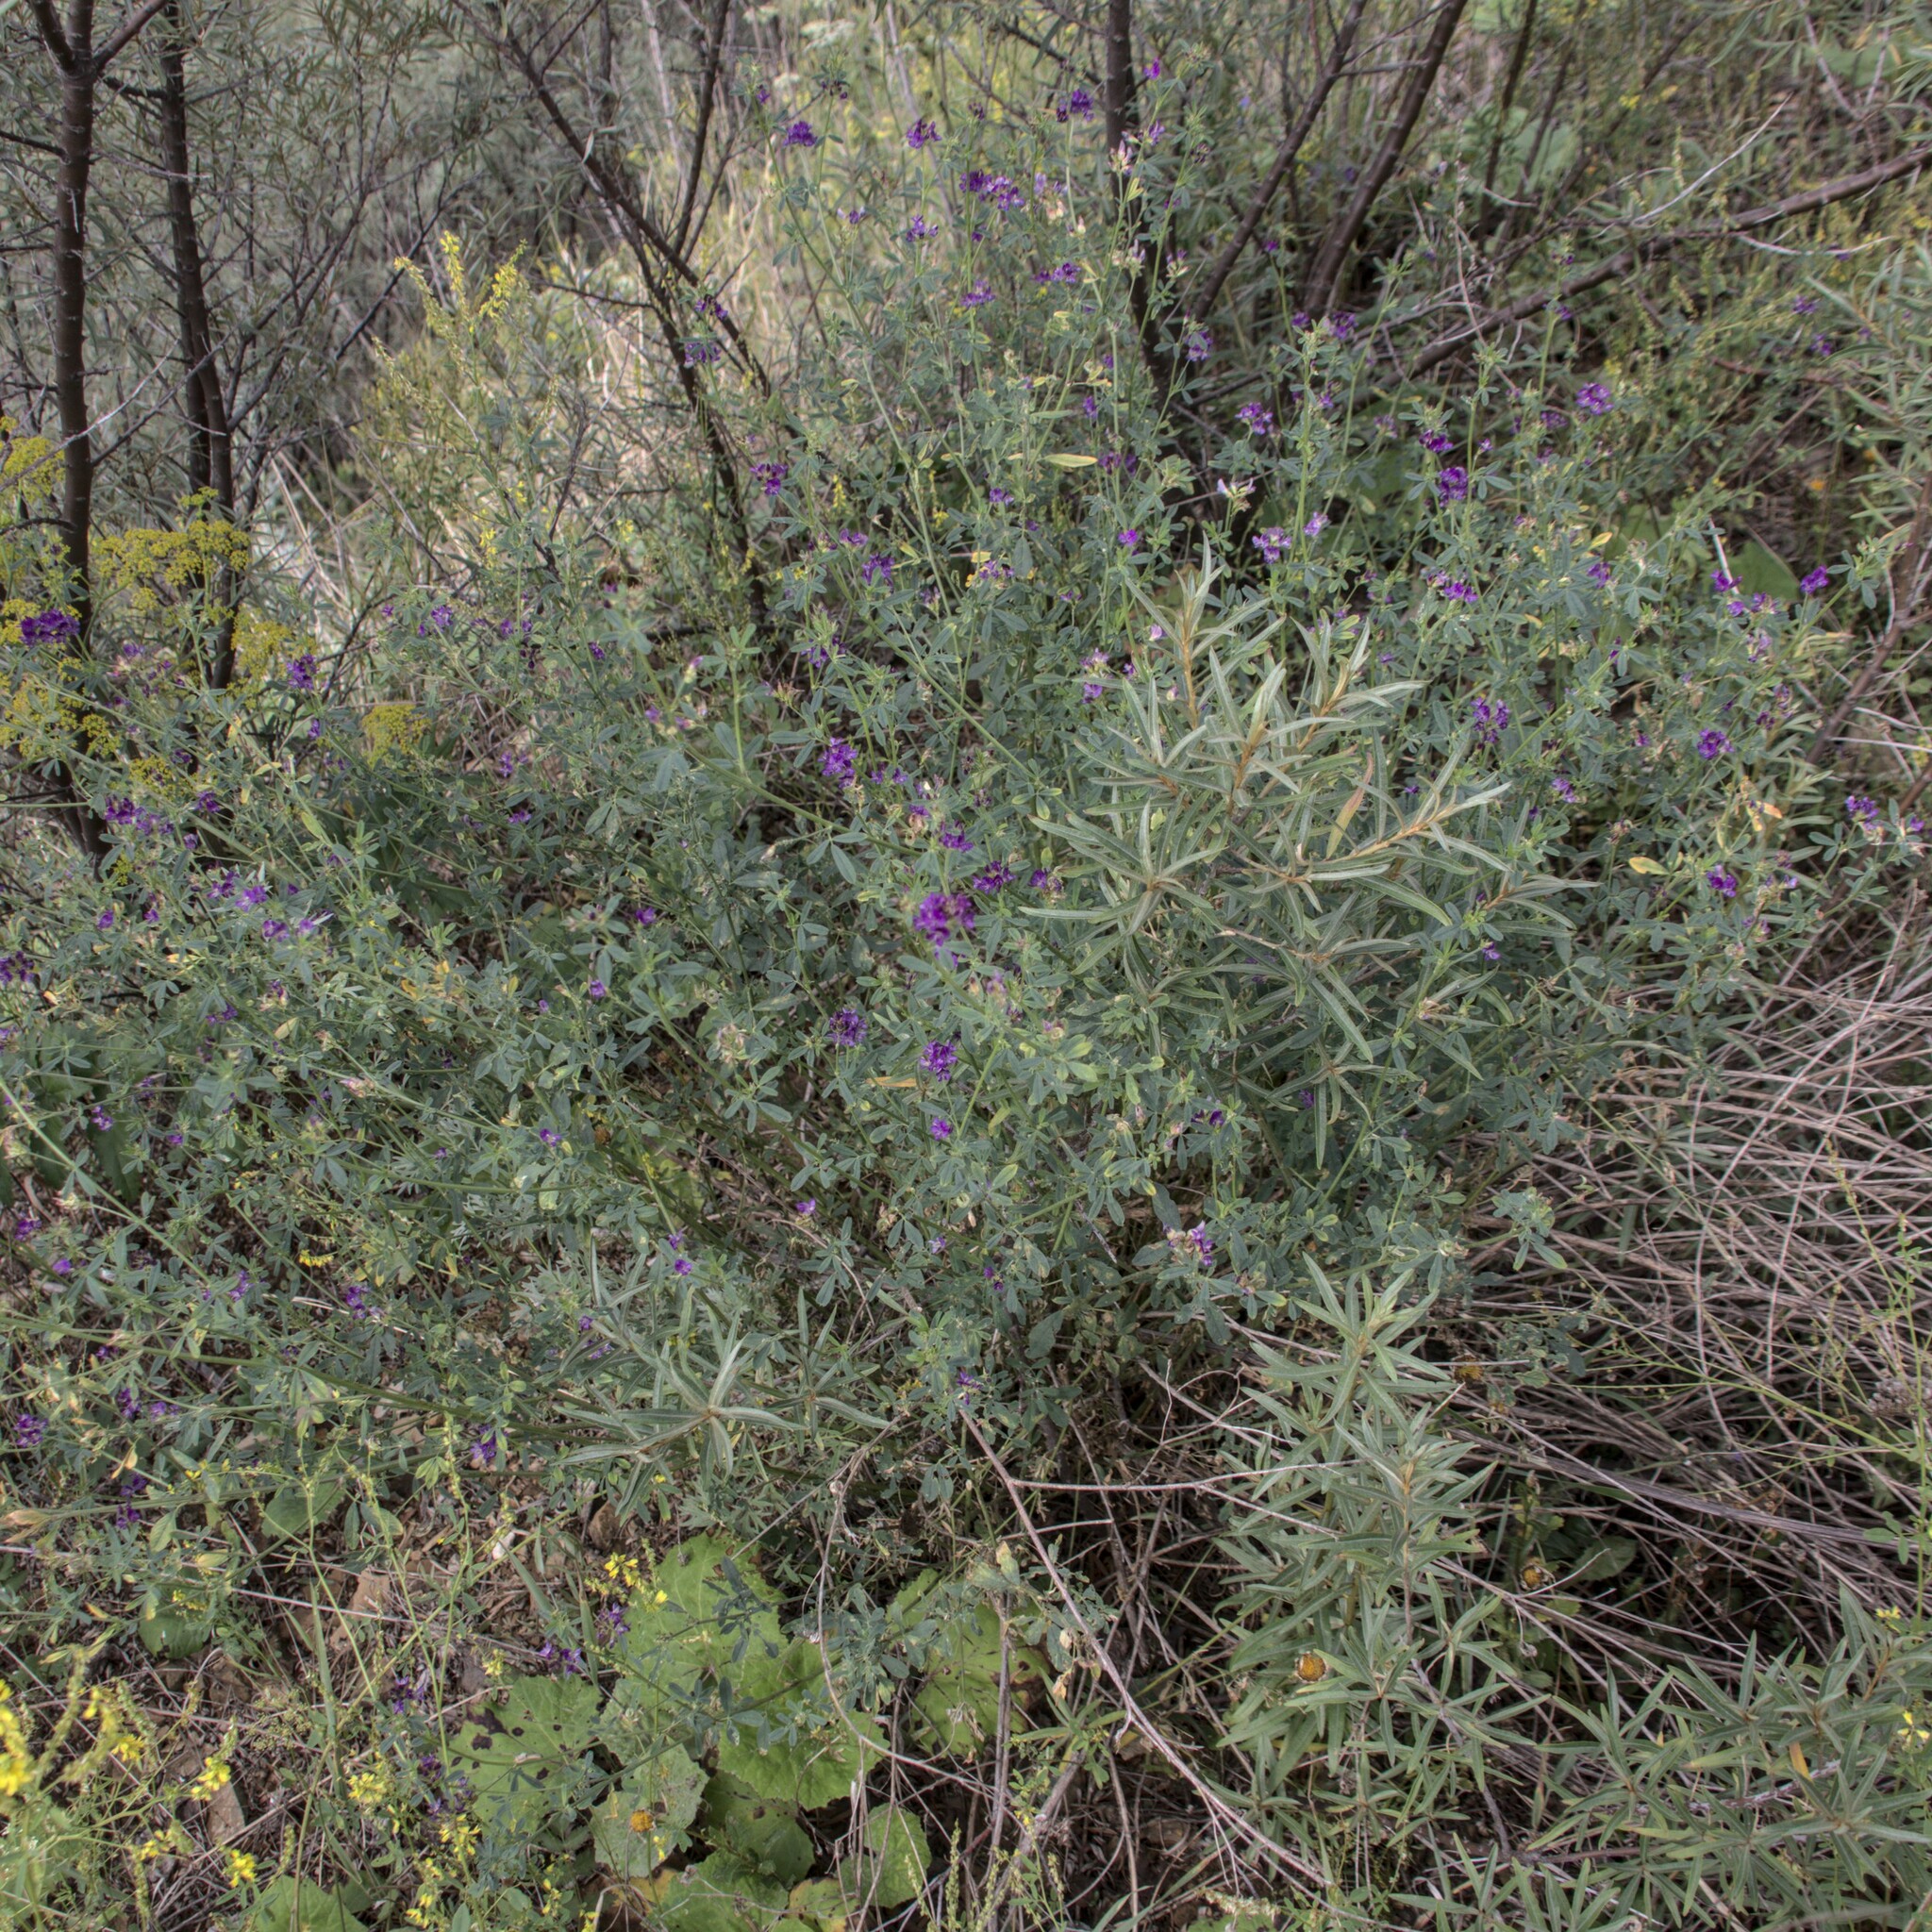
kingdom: Plantae
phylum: Tracheophyta
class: Magnoliopsida
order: Fabales
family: Fabaceae
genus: Medicago
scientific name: Medicago sativa
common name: Alfalfa
